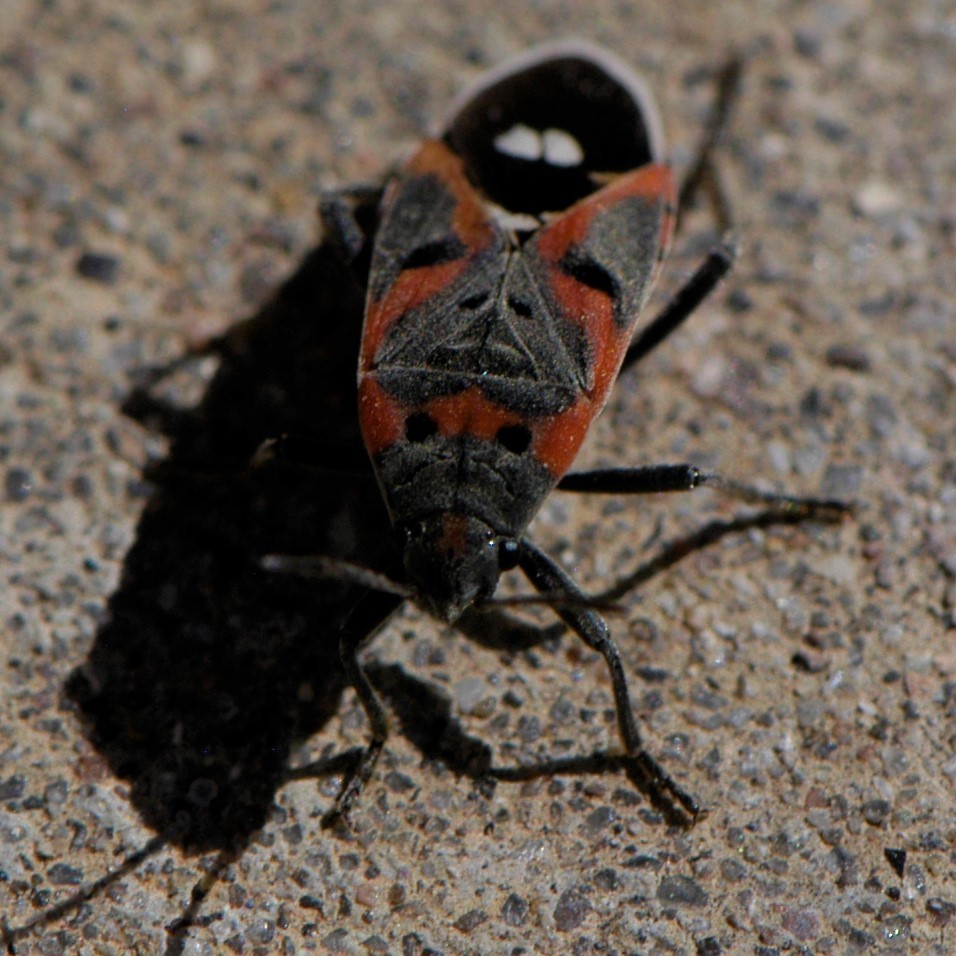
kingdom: Animalia
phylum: Arthropoda
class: Insecta
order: Hemiptera
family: Lygaeidae
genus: Lygaeus
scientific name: Lygaeus kalmii
